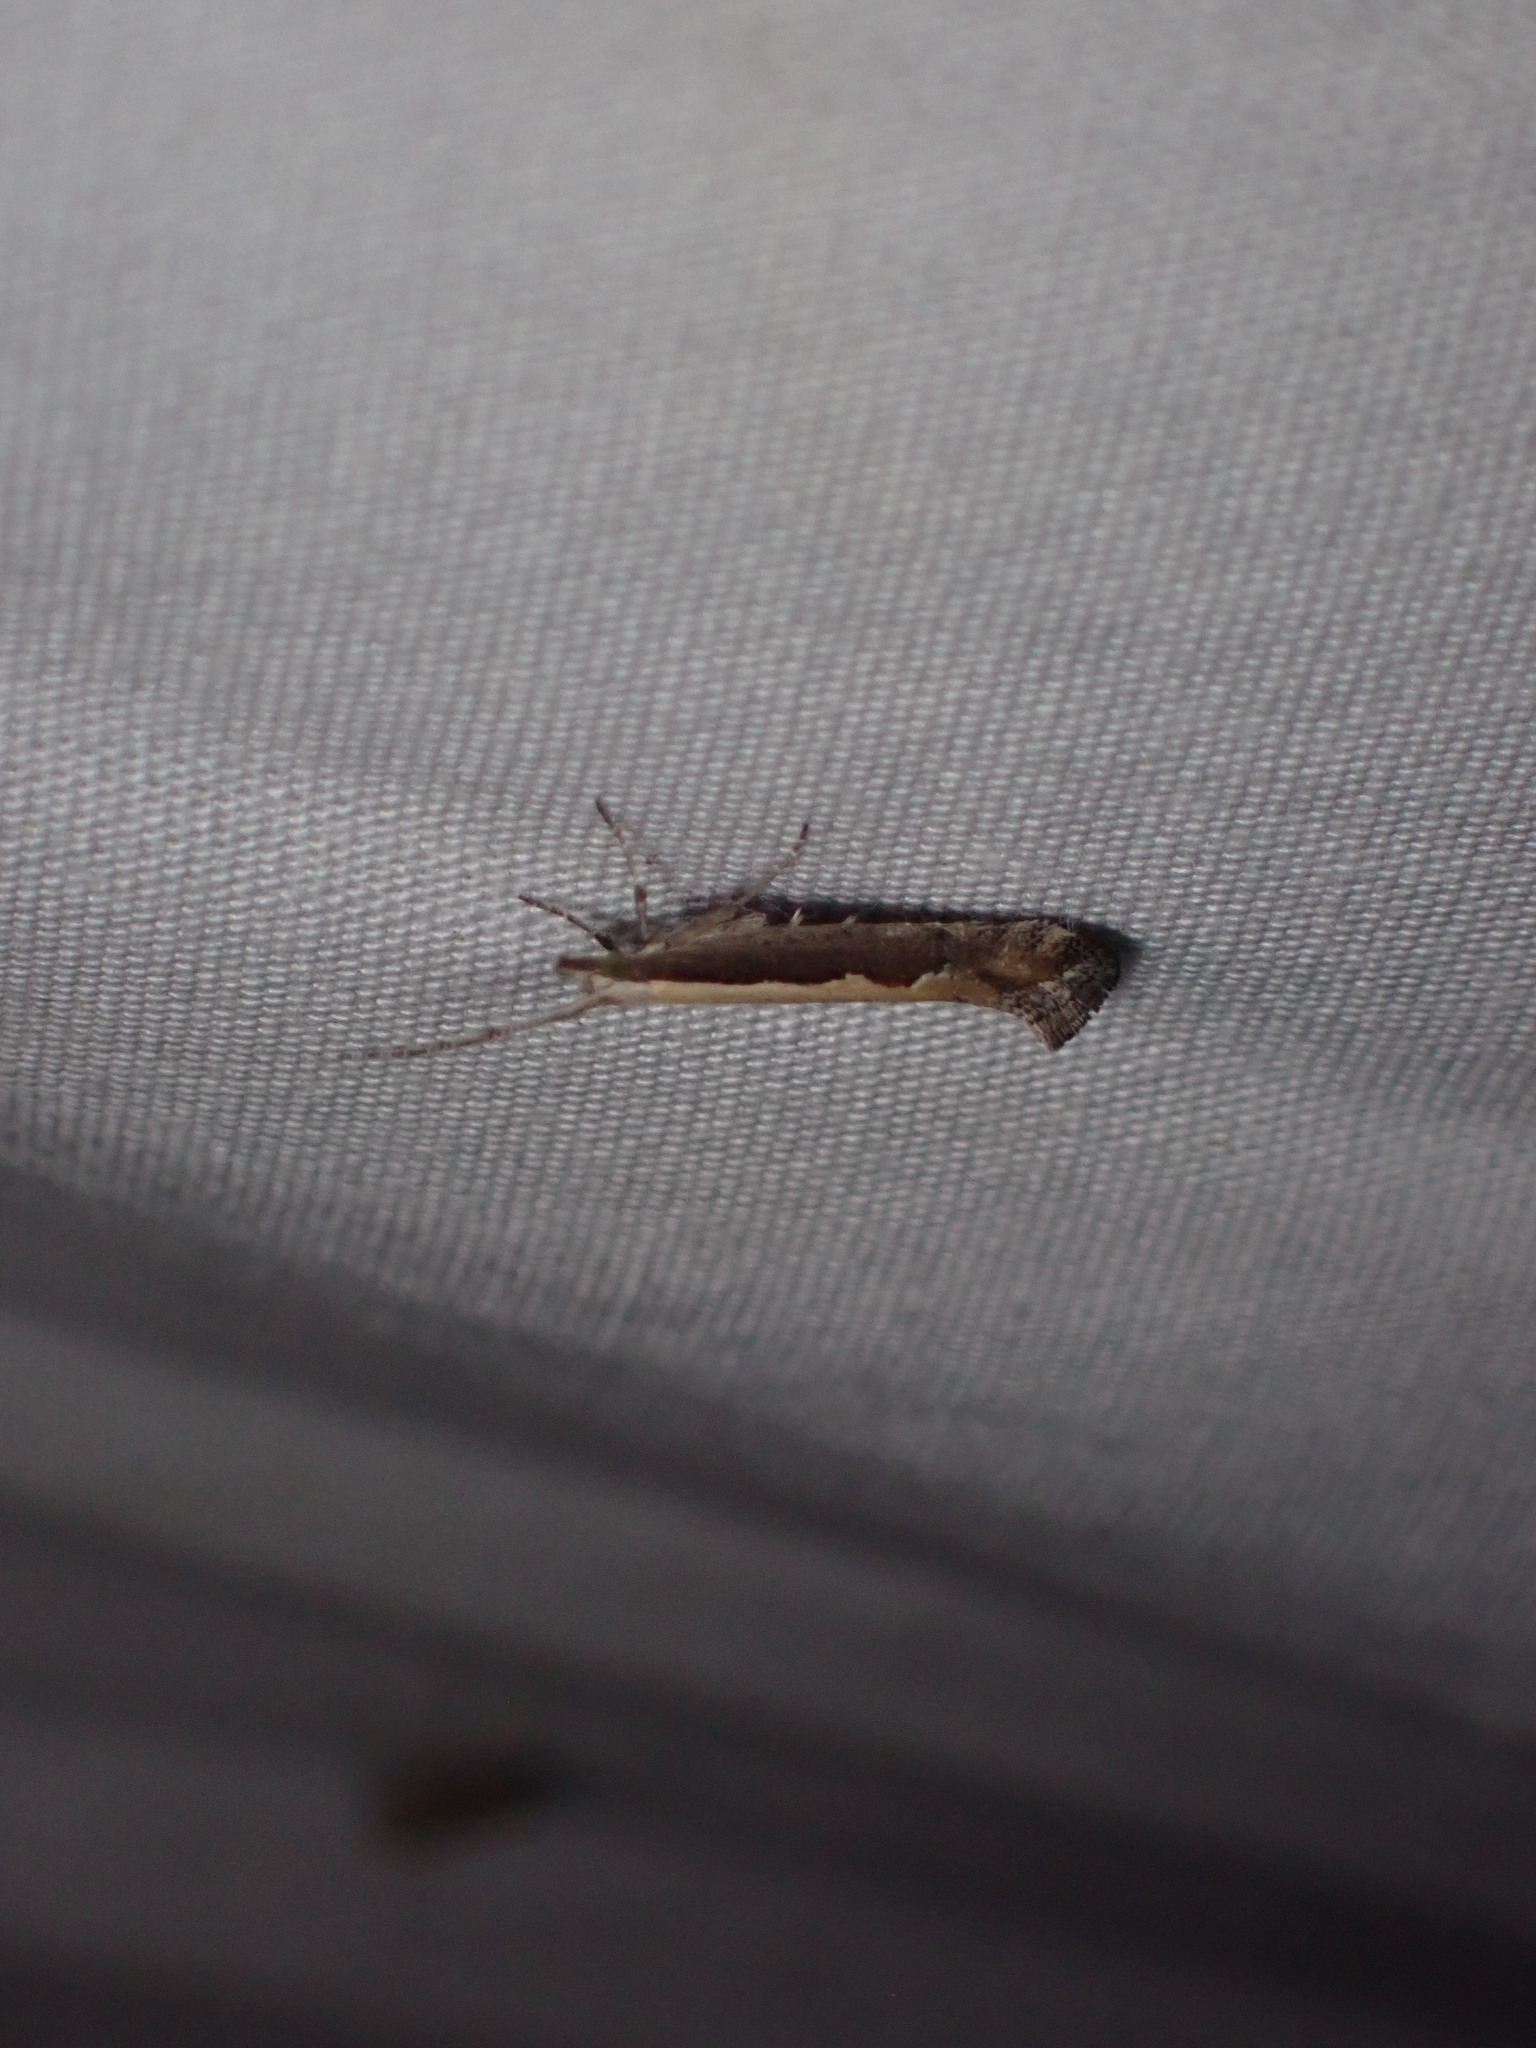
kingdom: Animalia
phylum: Arthropoda
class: Insecta
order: Lepidoptera
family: Plutellidae
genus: Plutella
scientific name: Plutella xylostella
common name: Diamond-back moth
